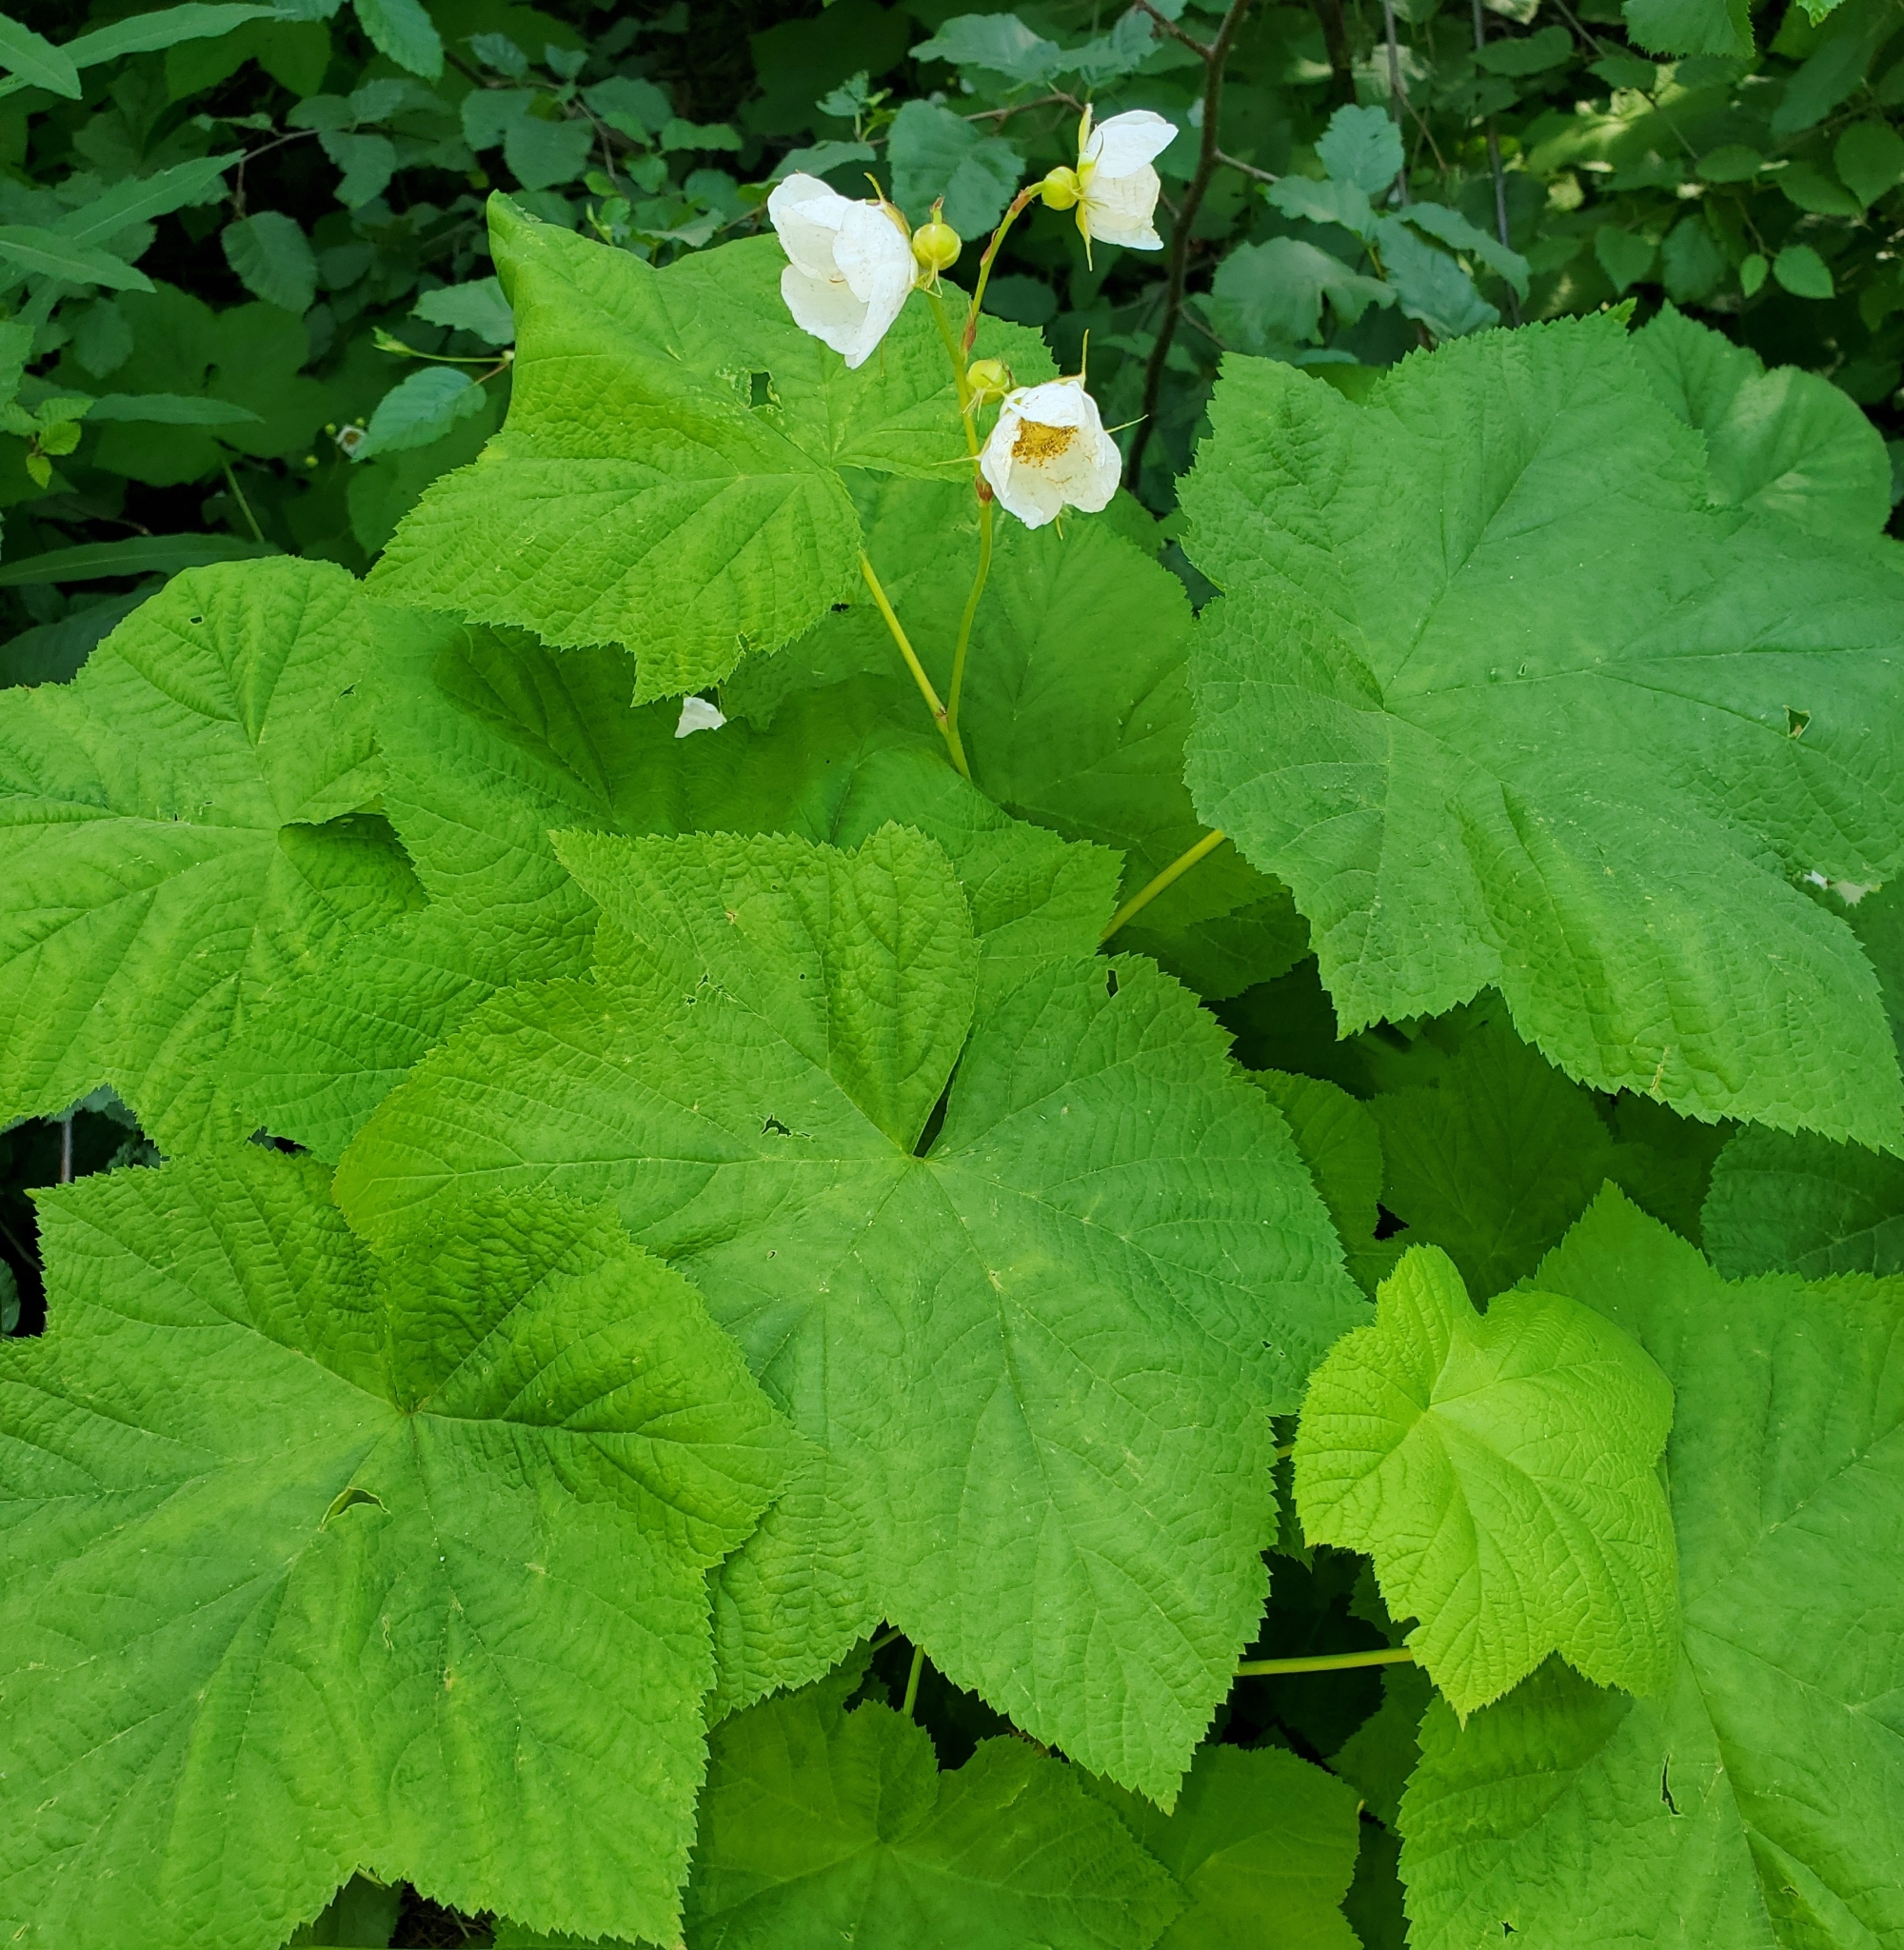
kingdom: Plantae
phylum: Tracheophyta
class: Magnoliopsida
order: Rosales
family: Rosaceae
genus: Rubus
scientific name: Rubus parviflorus
